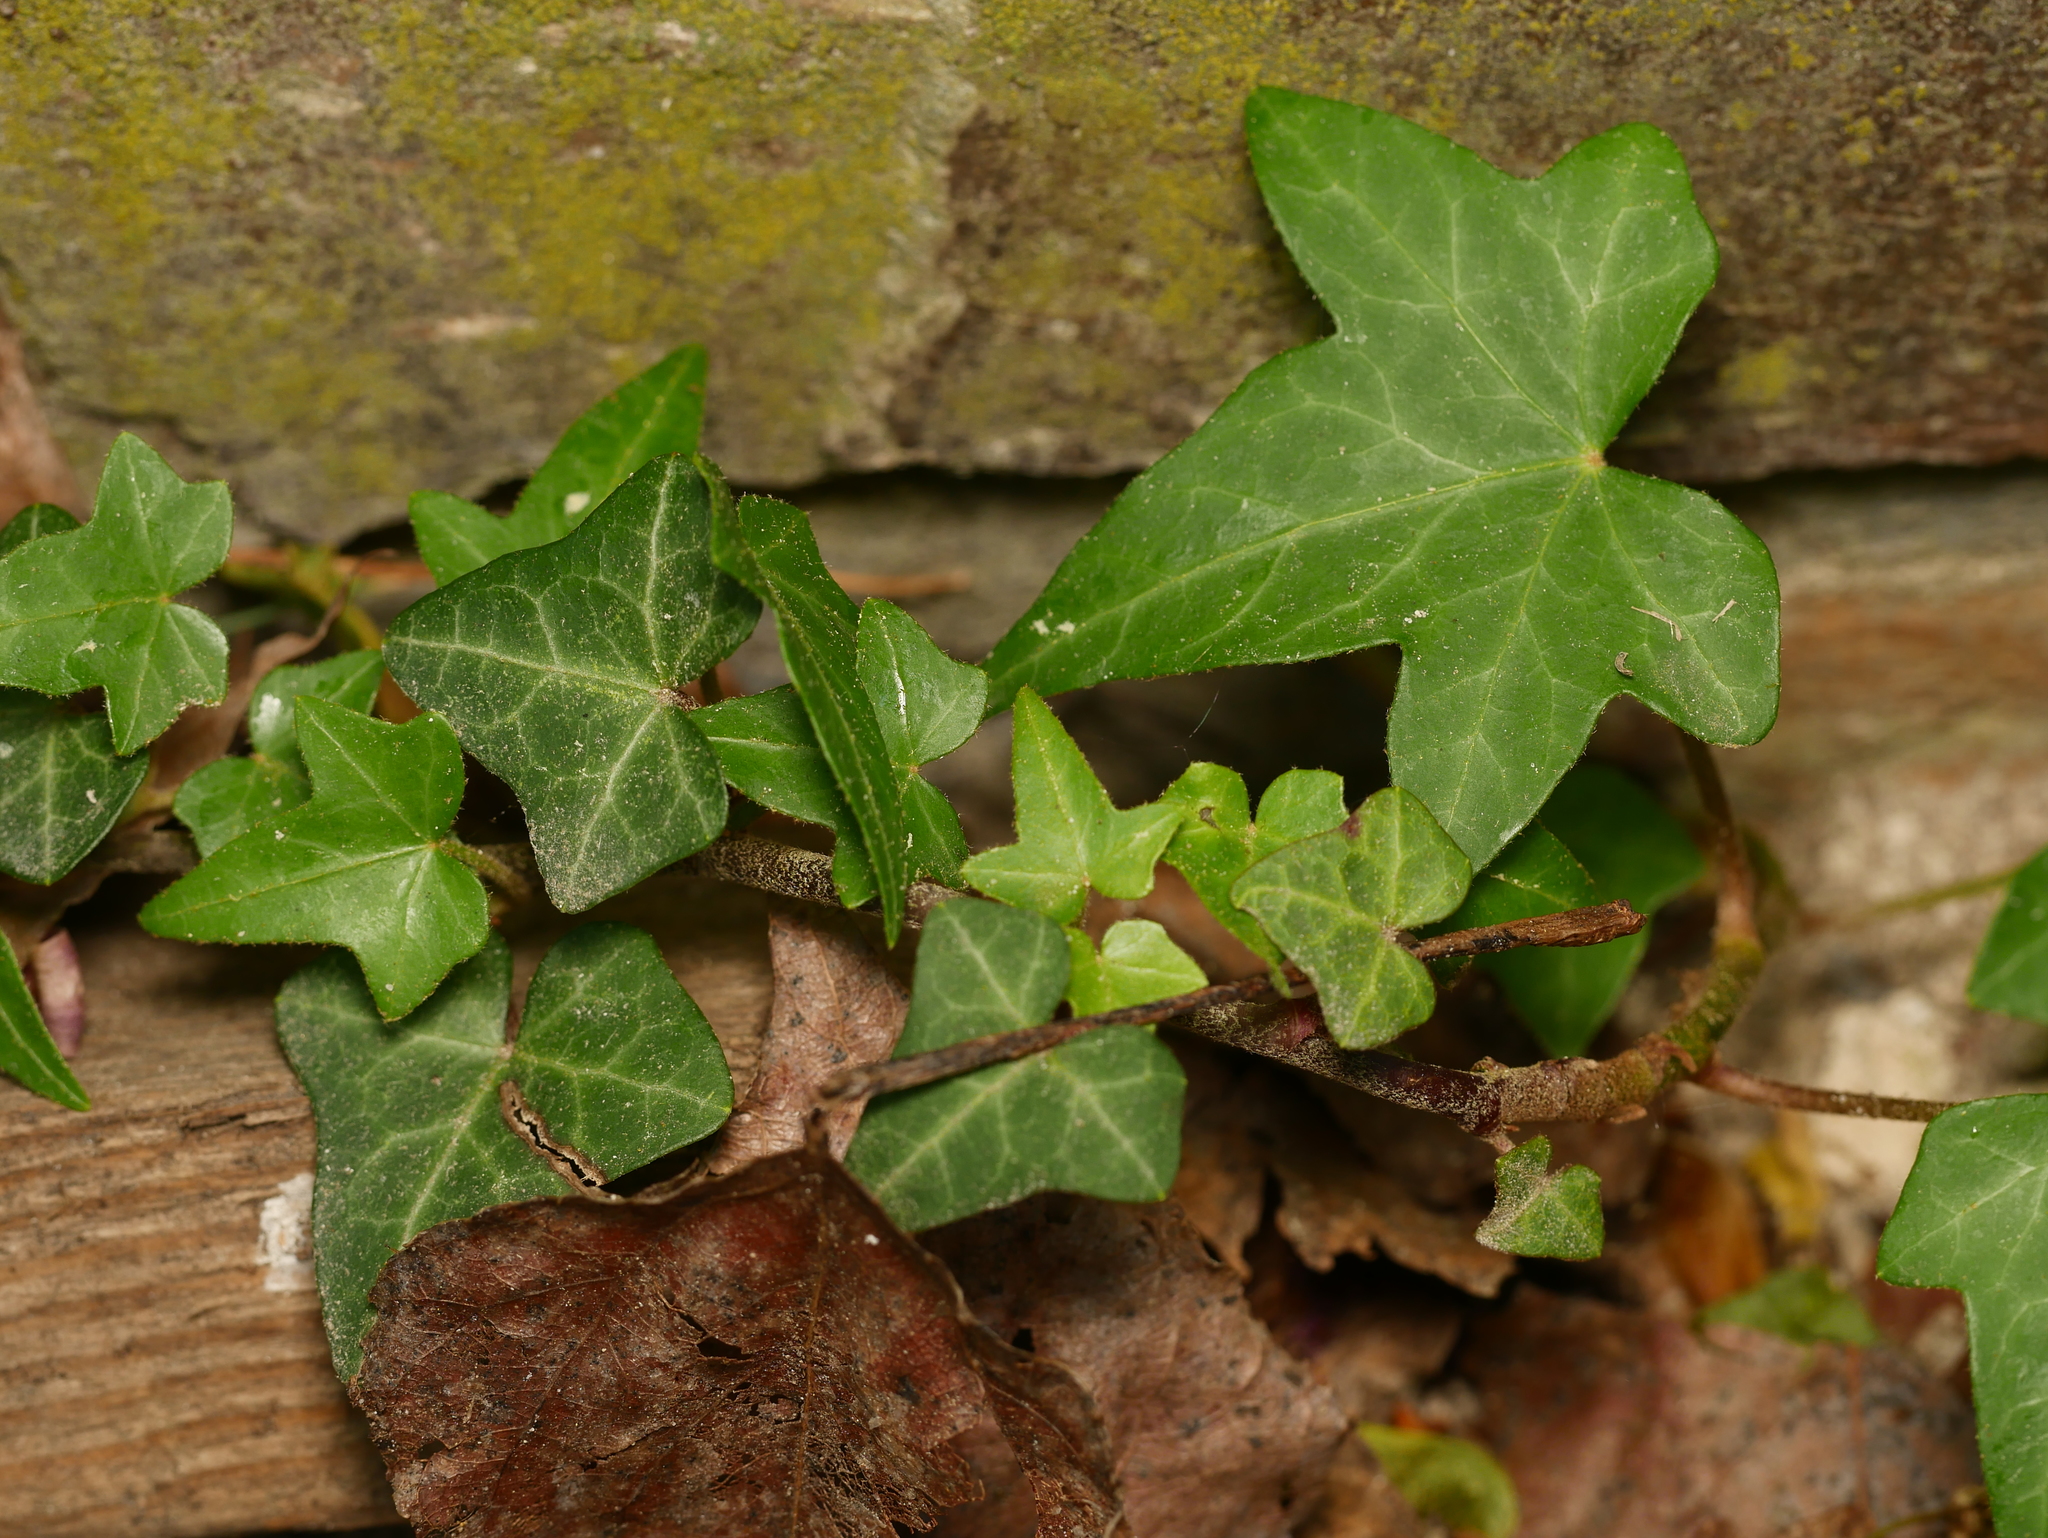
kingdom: Plantae
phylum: Tracheophyta
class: Magnoliopsida
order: Apiales
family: Araliaceae
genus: Hedera
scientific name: Hedera helix
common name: Ivy
